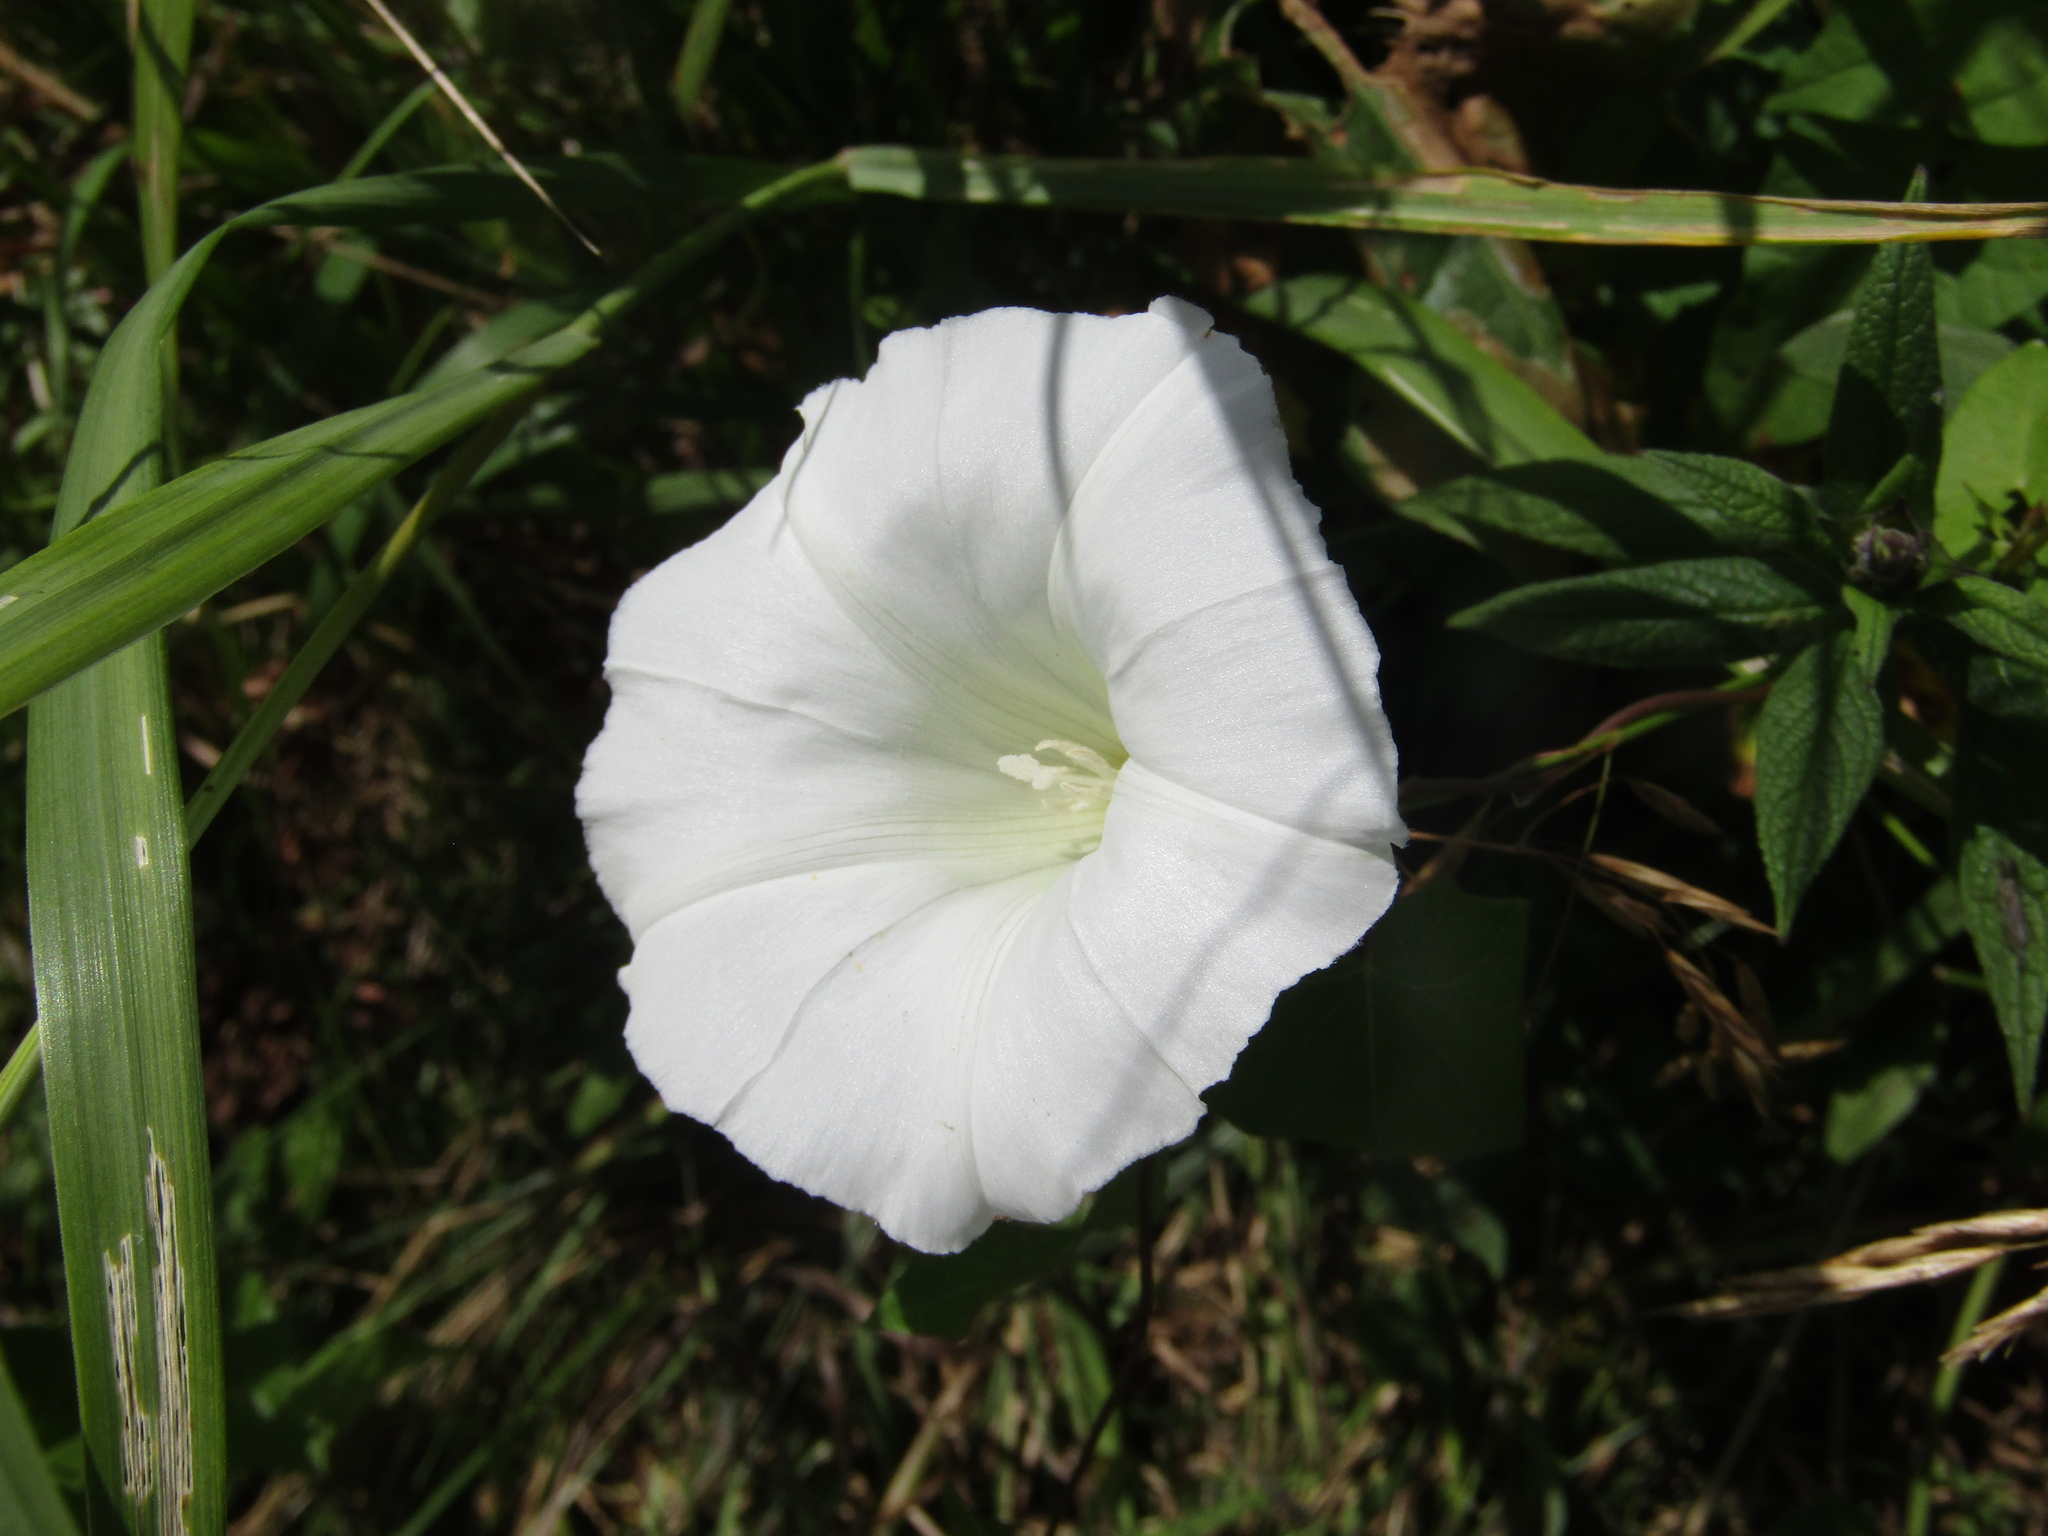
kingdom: Plantae
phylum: Tracheophyta
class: Magnoliopsida
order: Solanales
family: Convolvulaceae
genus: Calystegia
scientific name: Calystegia sepium
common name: Hedge bindweed
